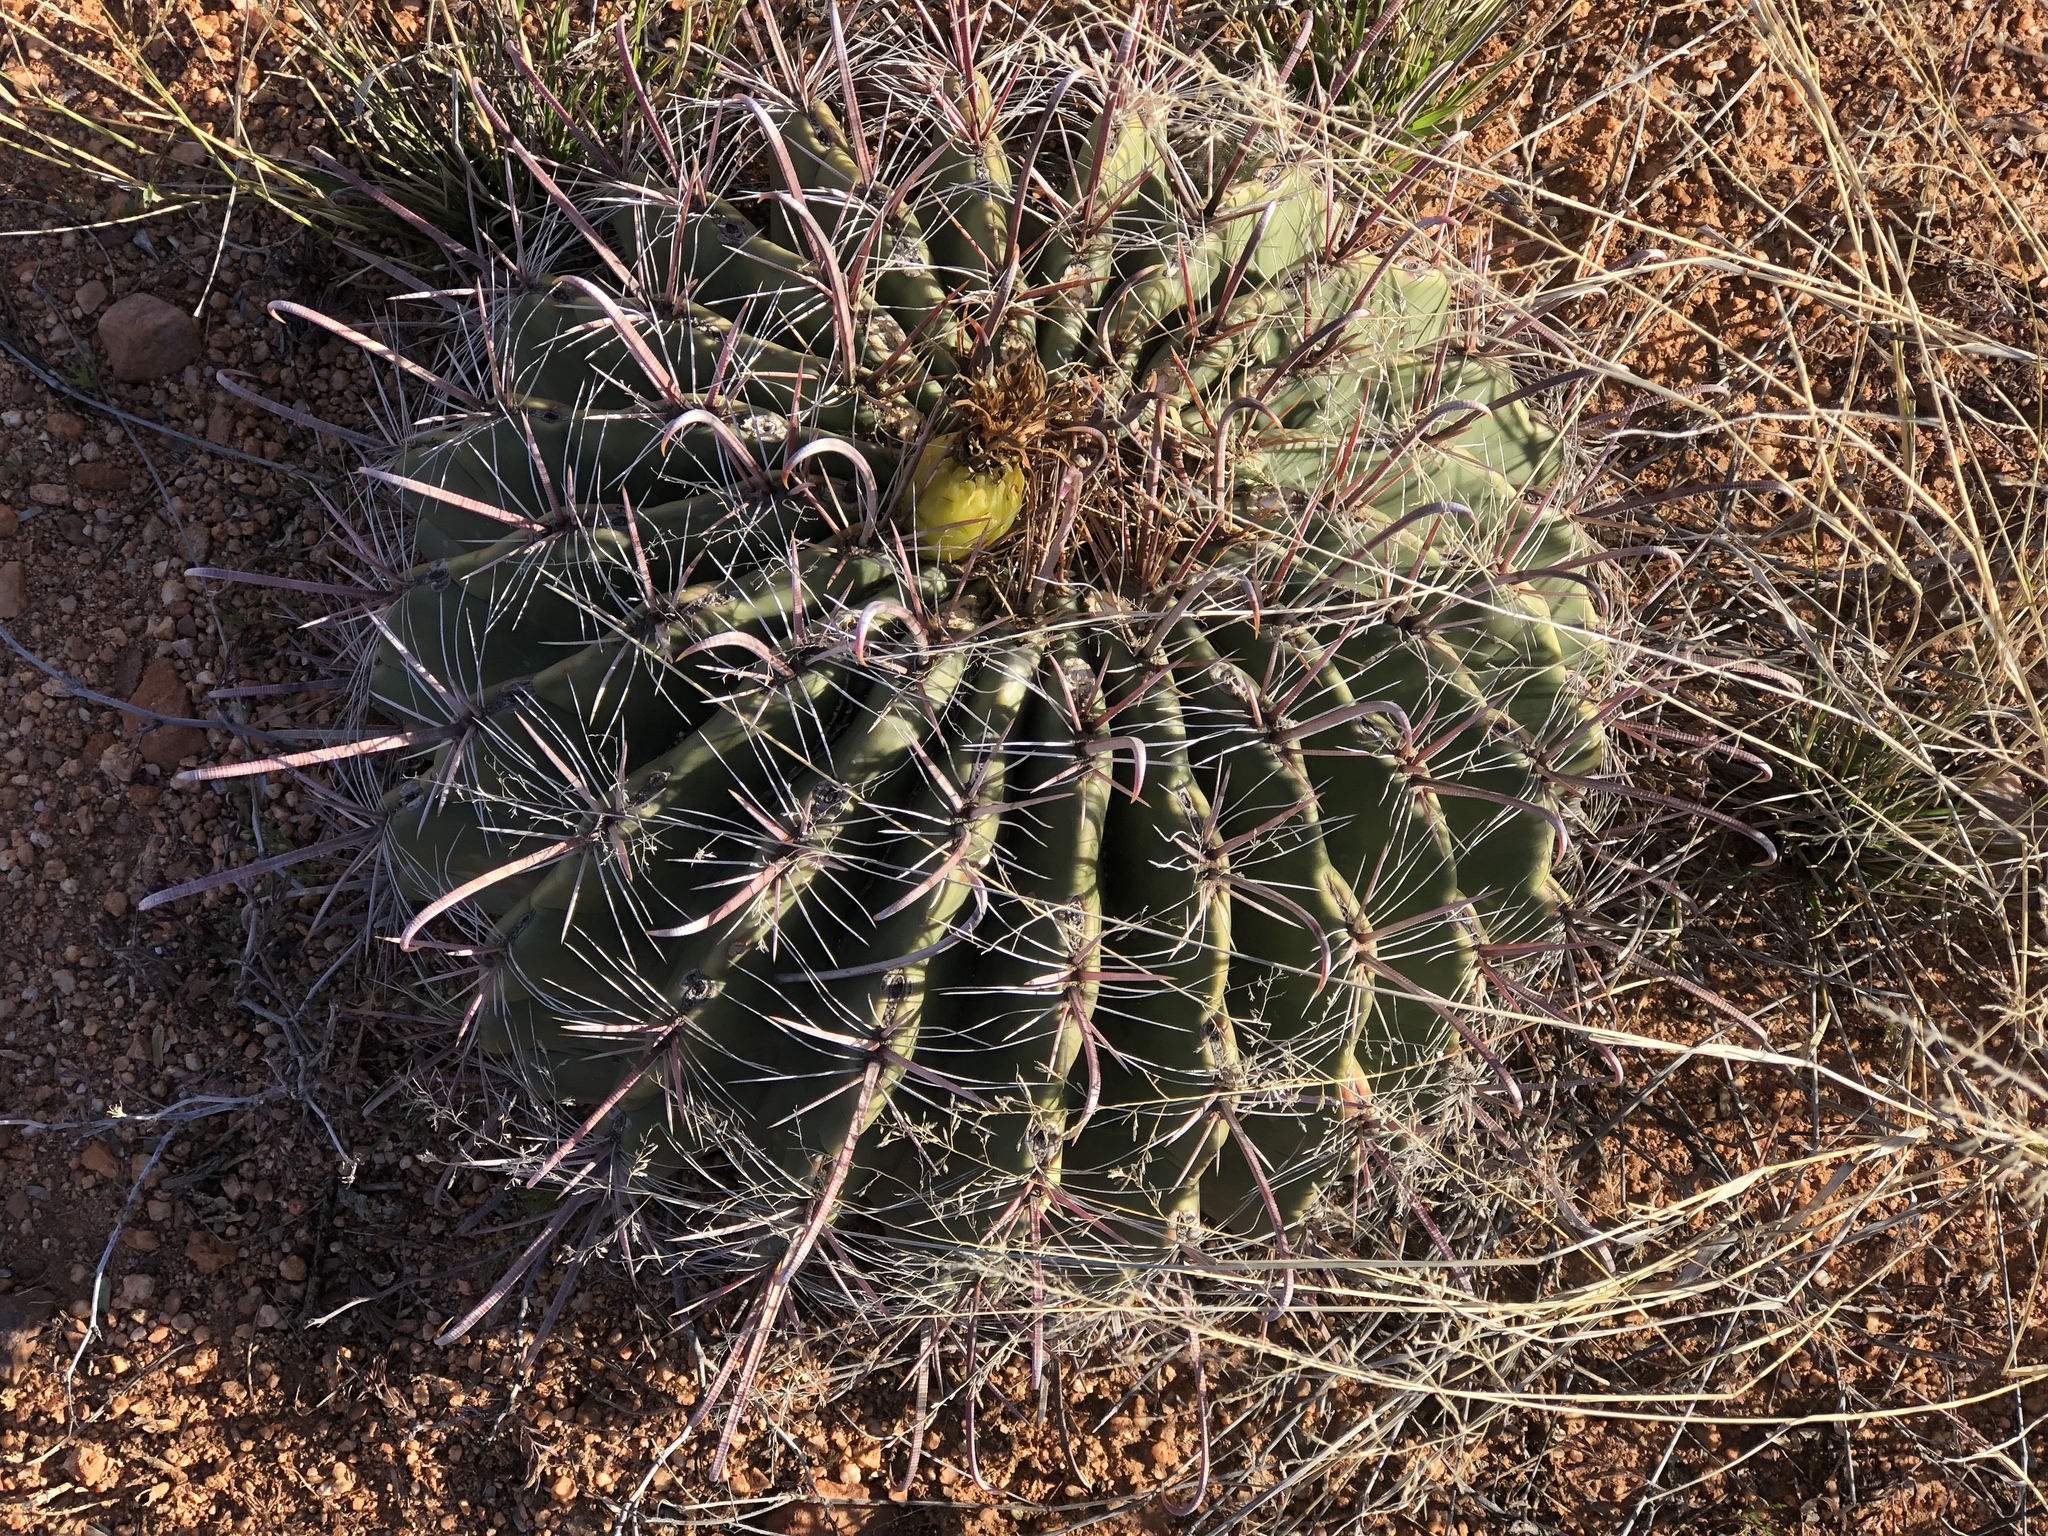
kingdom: Plantae
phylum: Tracheophyta
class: Magnoliopsida
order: Caryophyllales
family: Cactaceae
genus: Ferocactus
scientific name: Ferocactus wislizeni
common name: Candy barrel cactus
